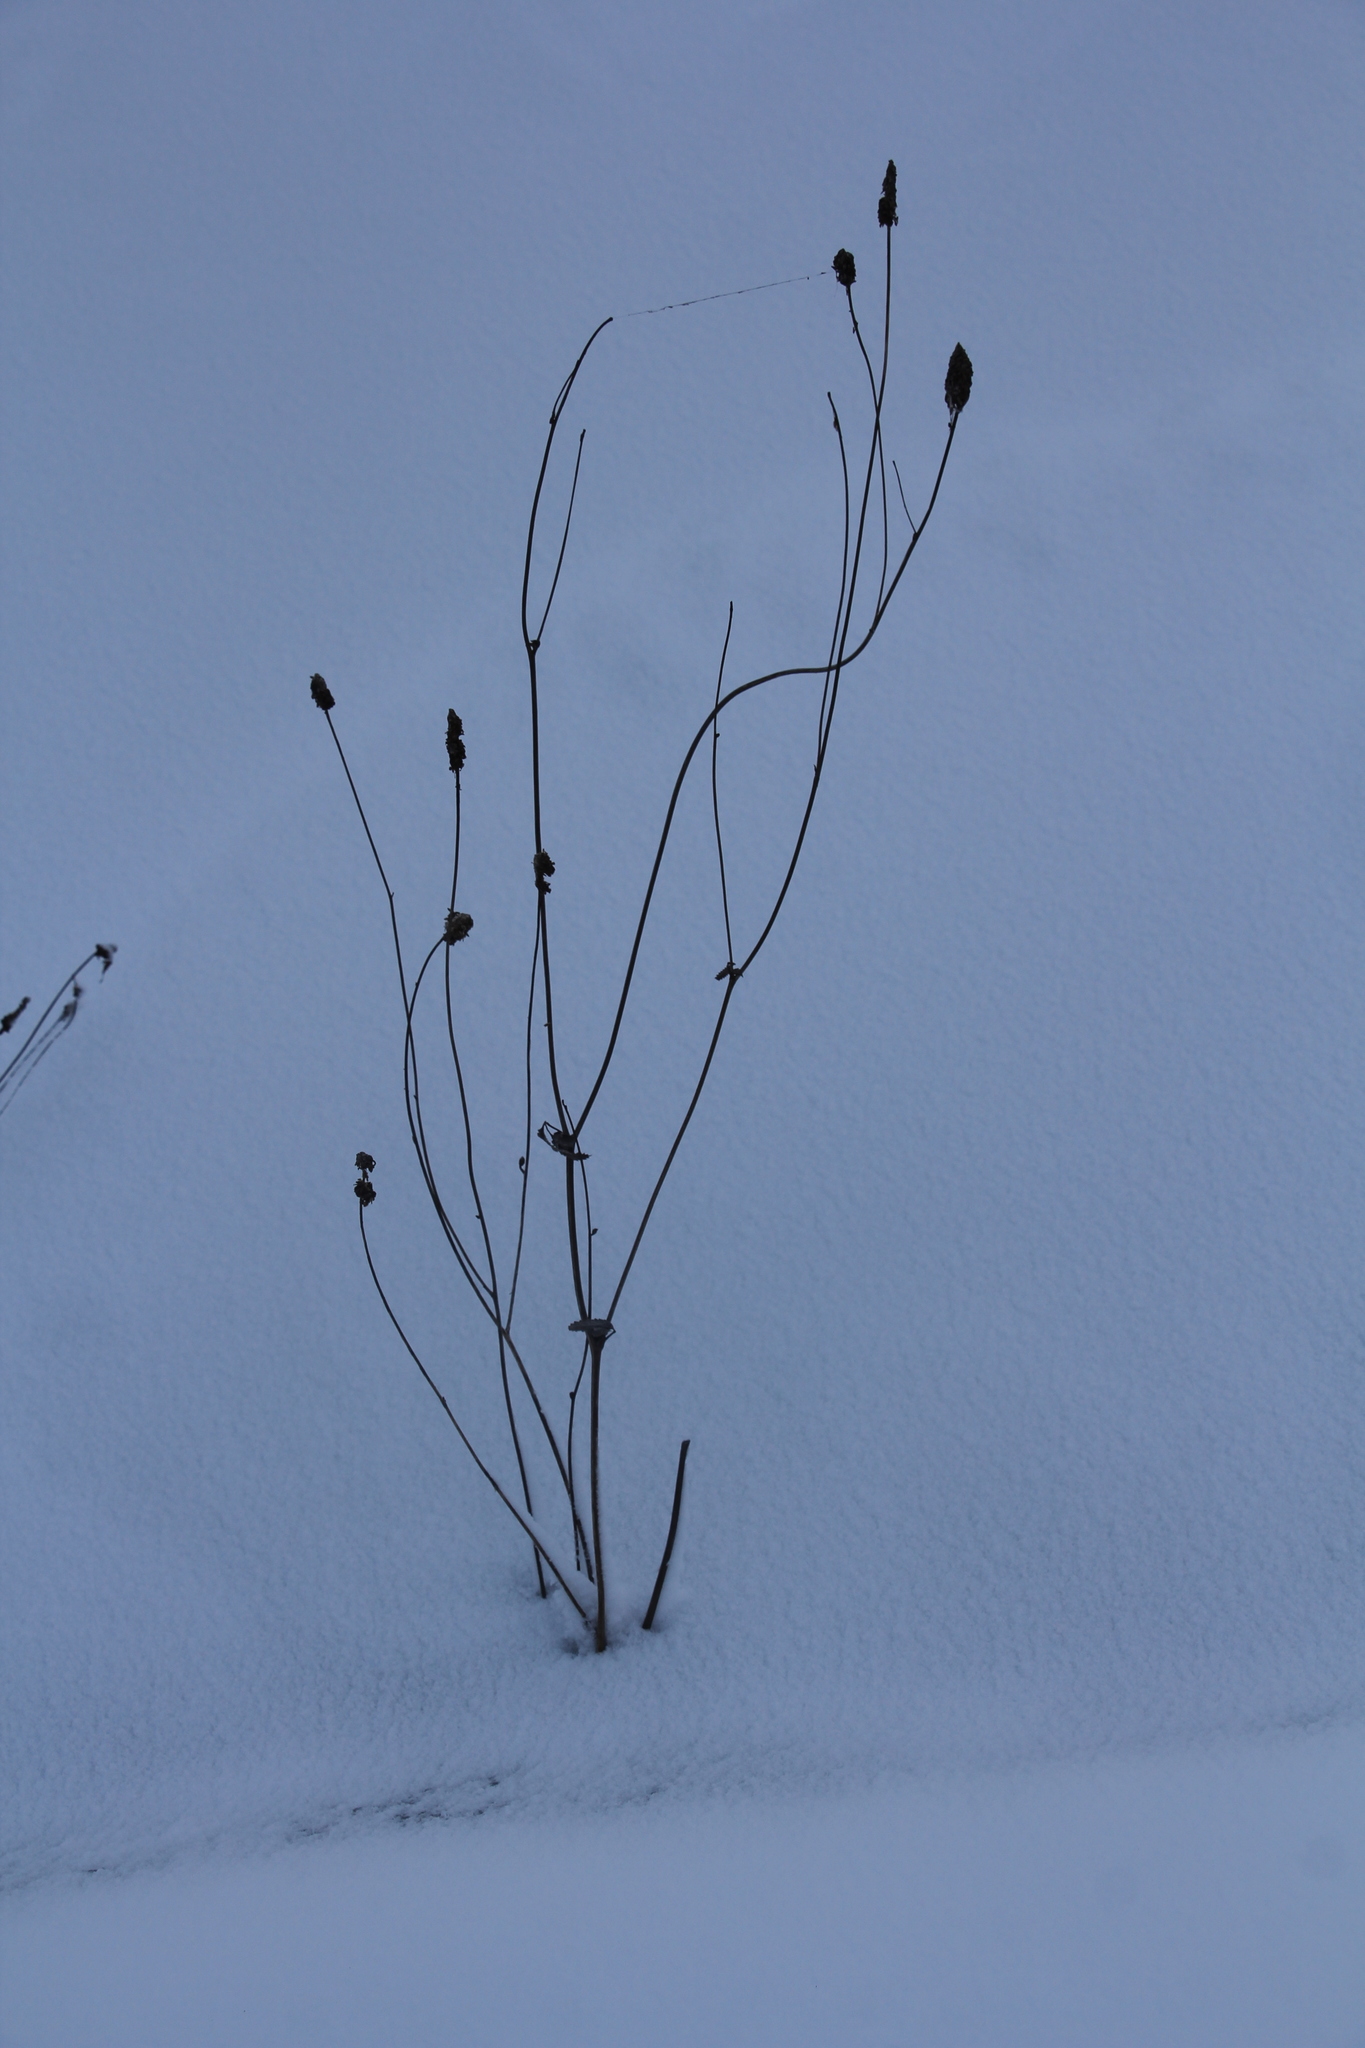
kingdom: Plantae
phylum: Tracheophyta
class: Magnoliopsida
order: Rosales
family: Rosaceae
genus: Sanguisorba
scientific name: Sanguisorba officinalis
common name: Great burnet
